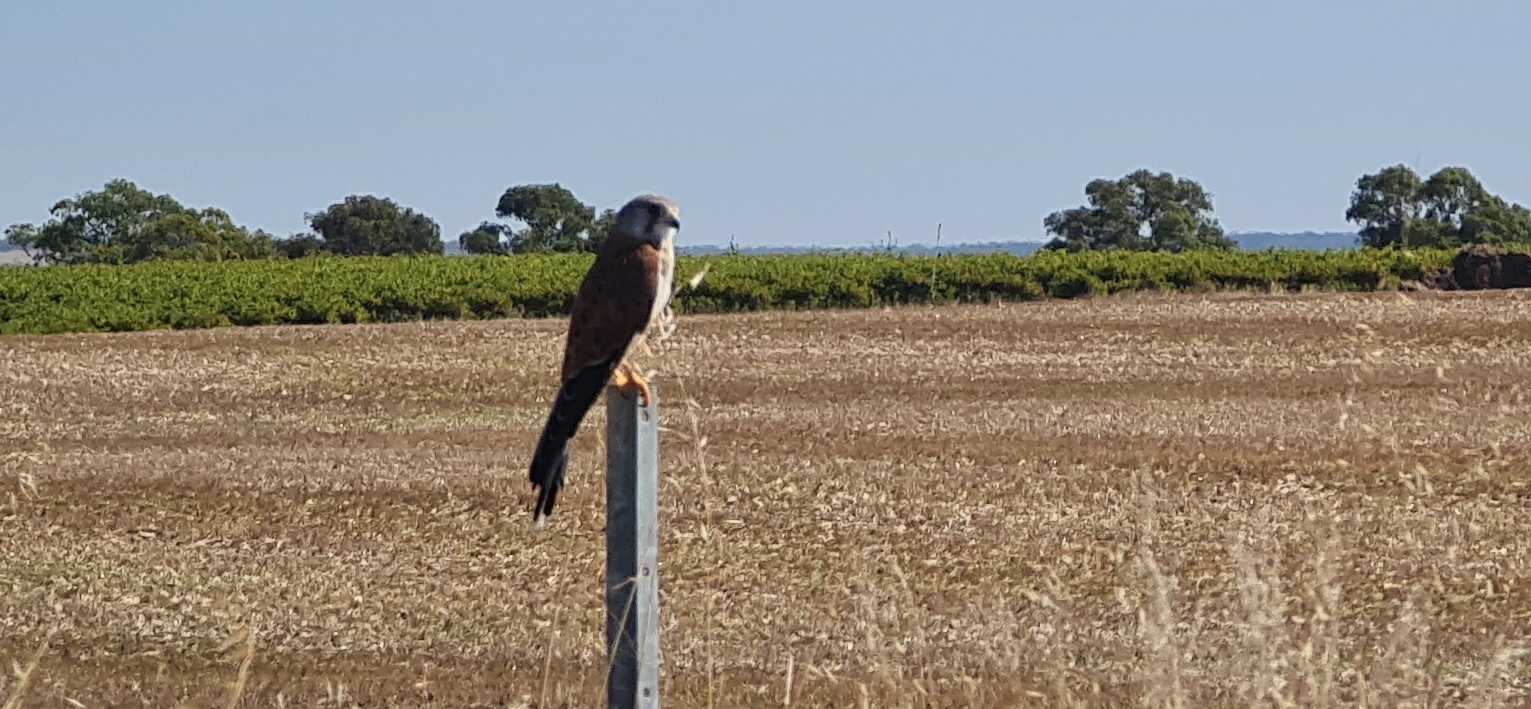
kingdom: Animalia
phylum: Chordata
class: Aves
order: Falconiformes
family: Falconidae
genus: Falco
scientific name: Falco cenchroides
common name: Nankeen kestrel
